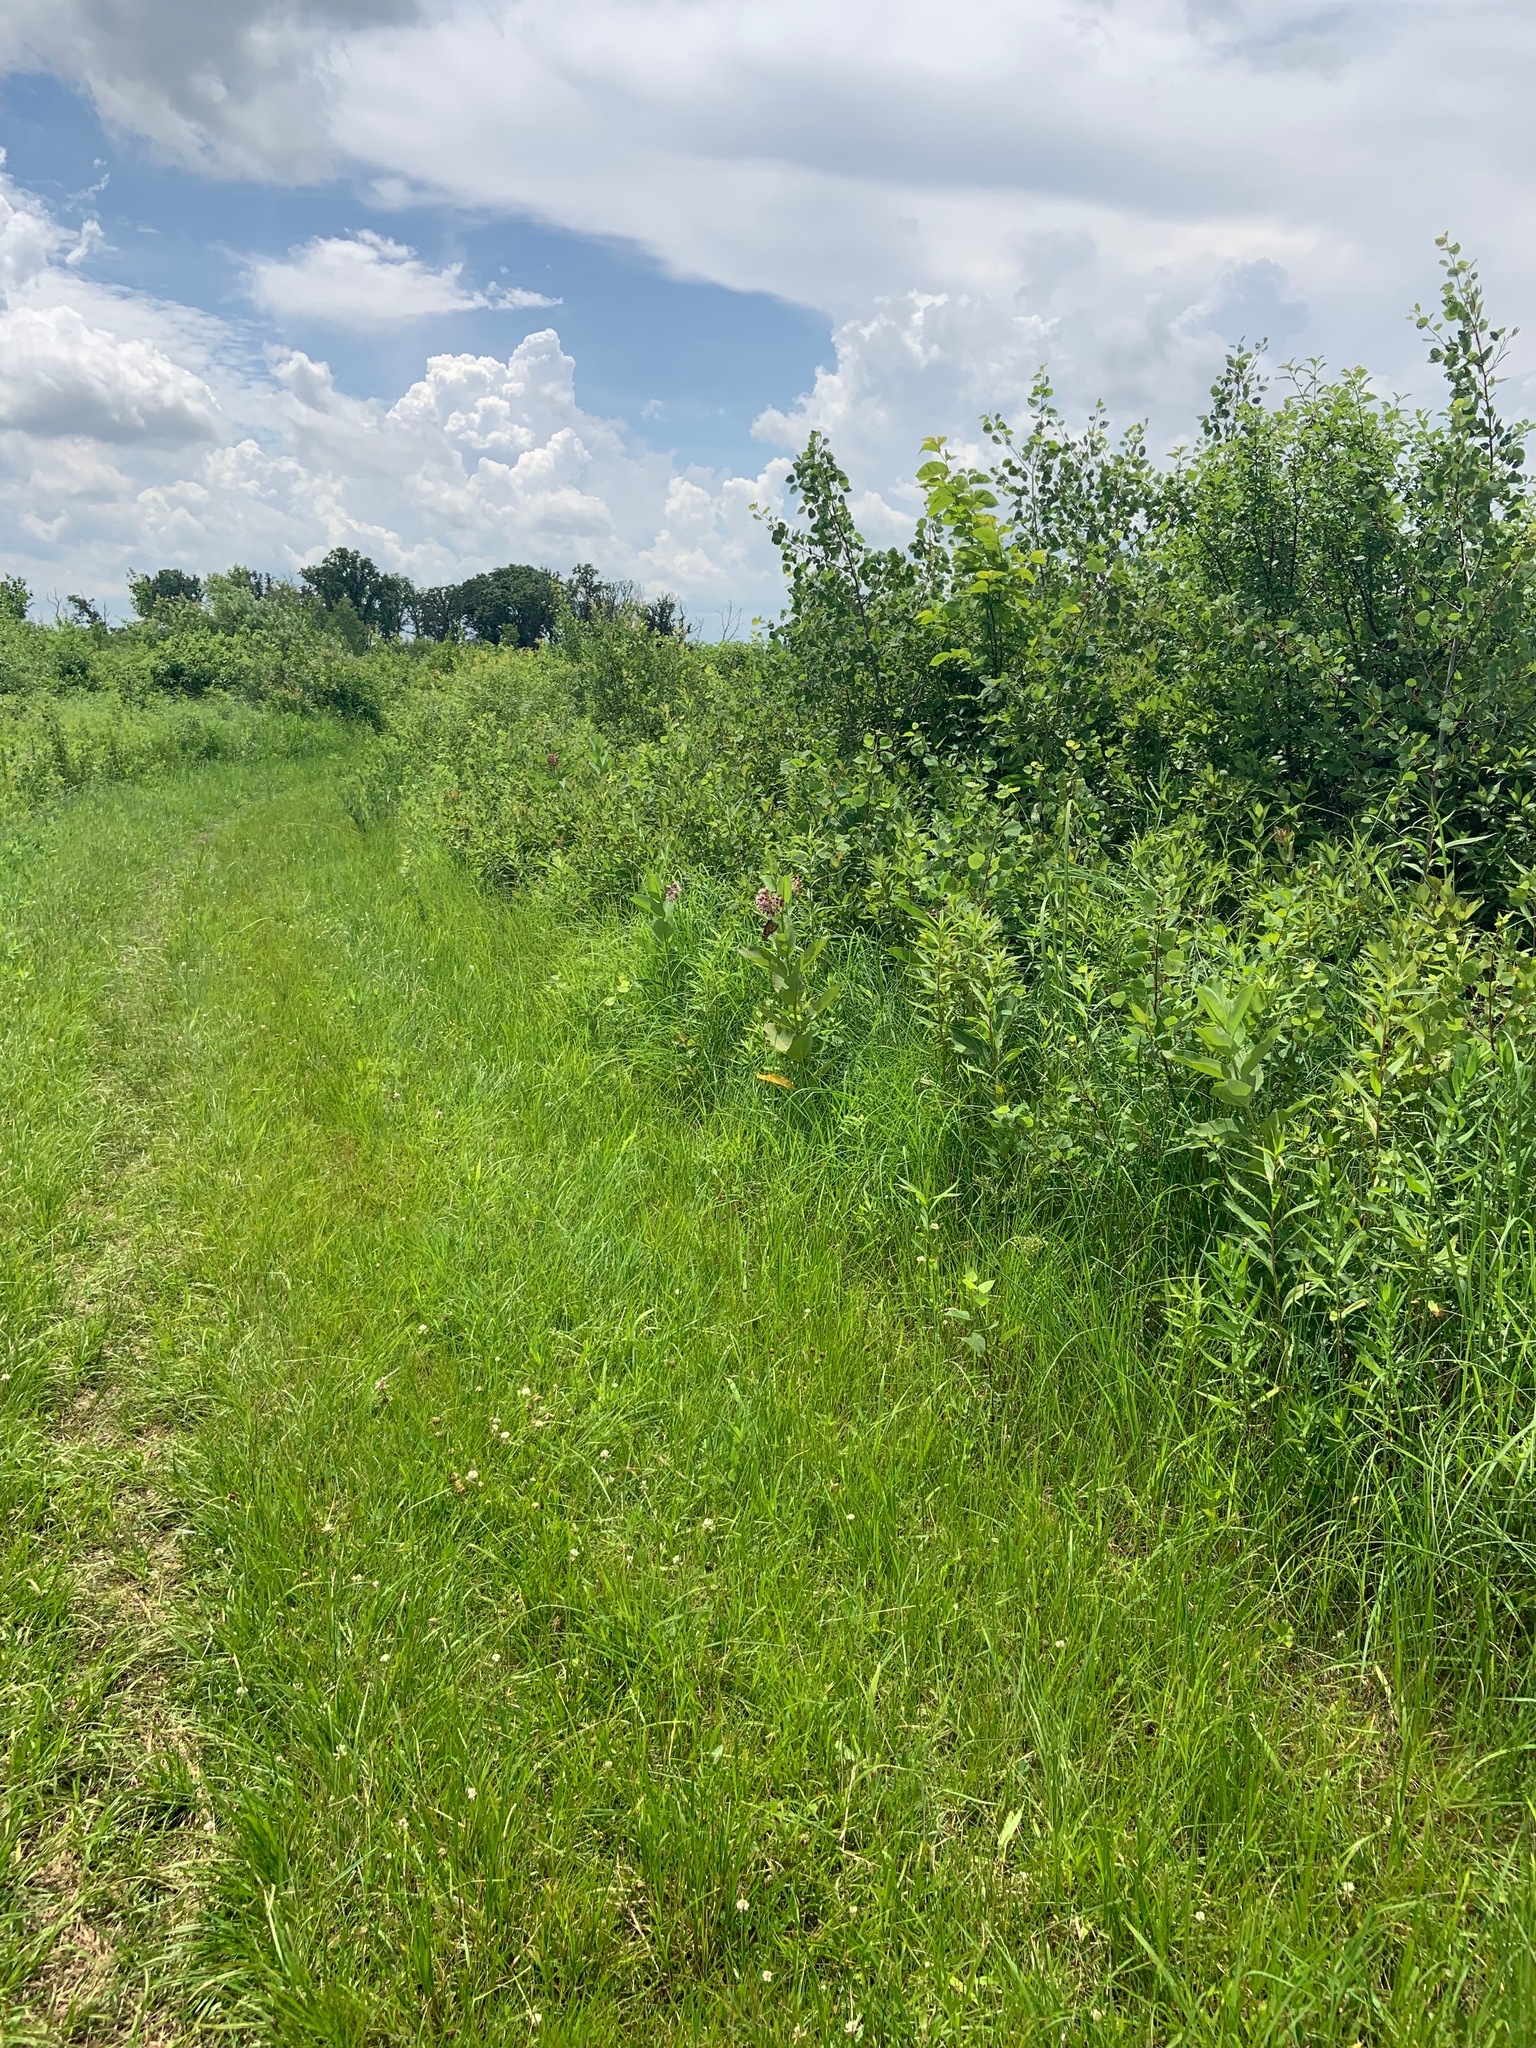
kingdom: Animalia
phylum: Arthropoda
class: Insecta
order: Lepidoptera
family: Nymphalidae
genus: Danaus
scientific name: Danaus plexippus
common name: Monarch
